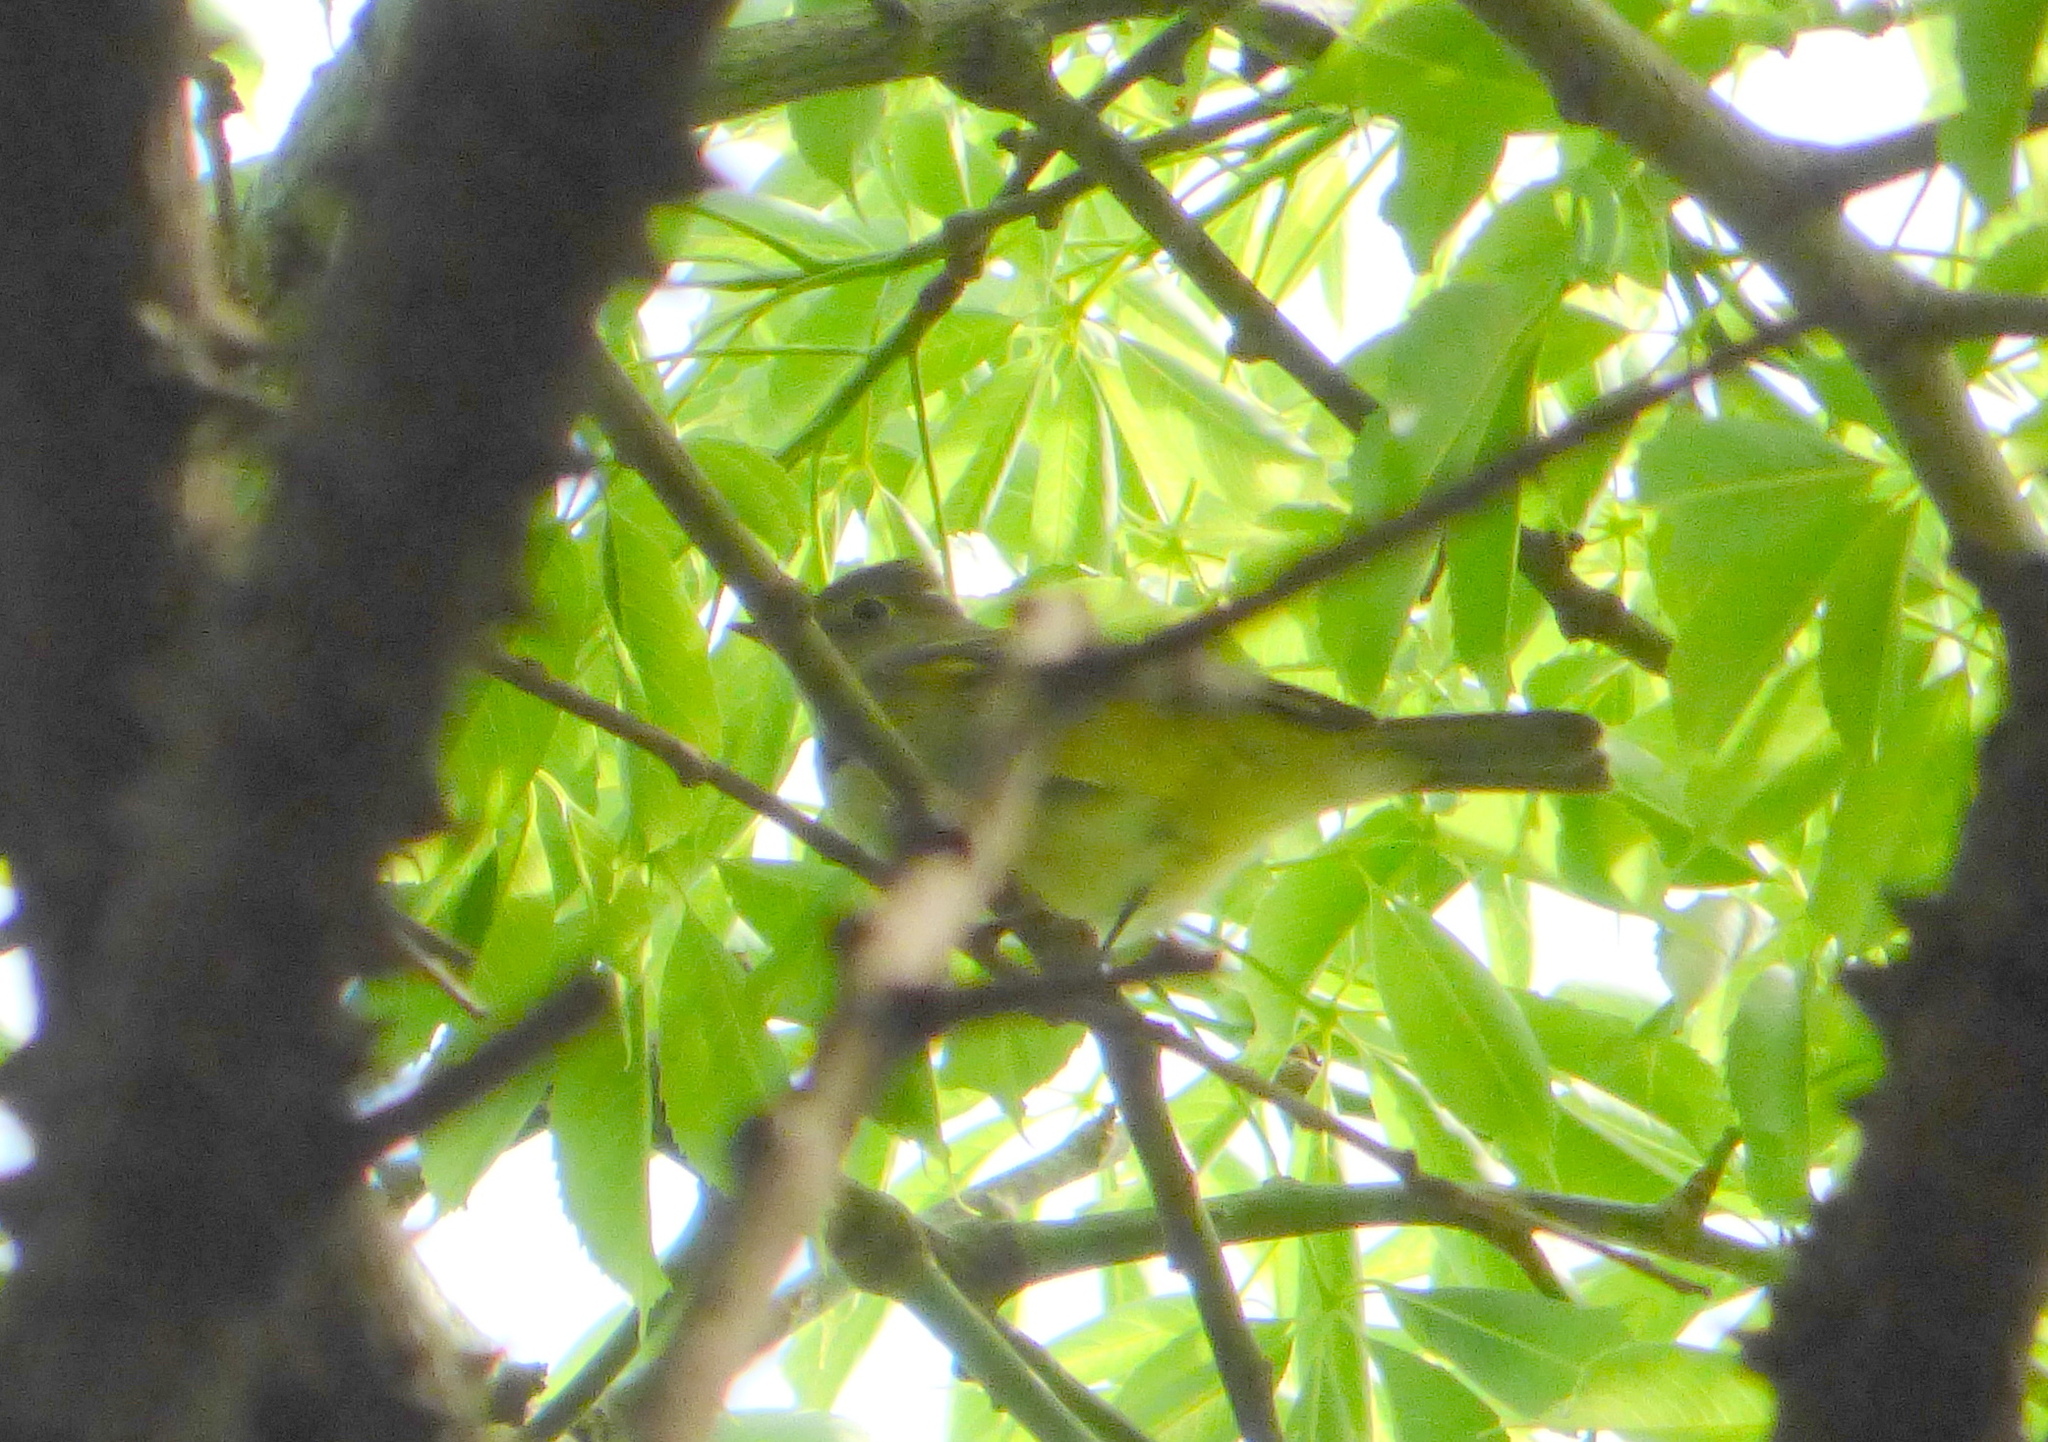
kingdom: Animalia
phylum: Chordata
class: Aves
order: Passeriformes
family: Tyrannidae
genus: Elaenia
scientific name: Elaenia albiceps
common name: White-crested elaenia
